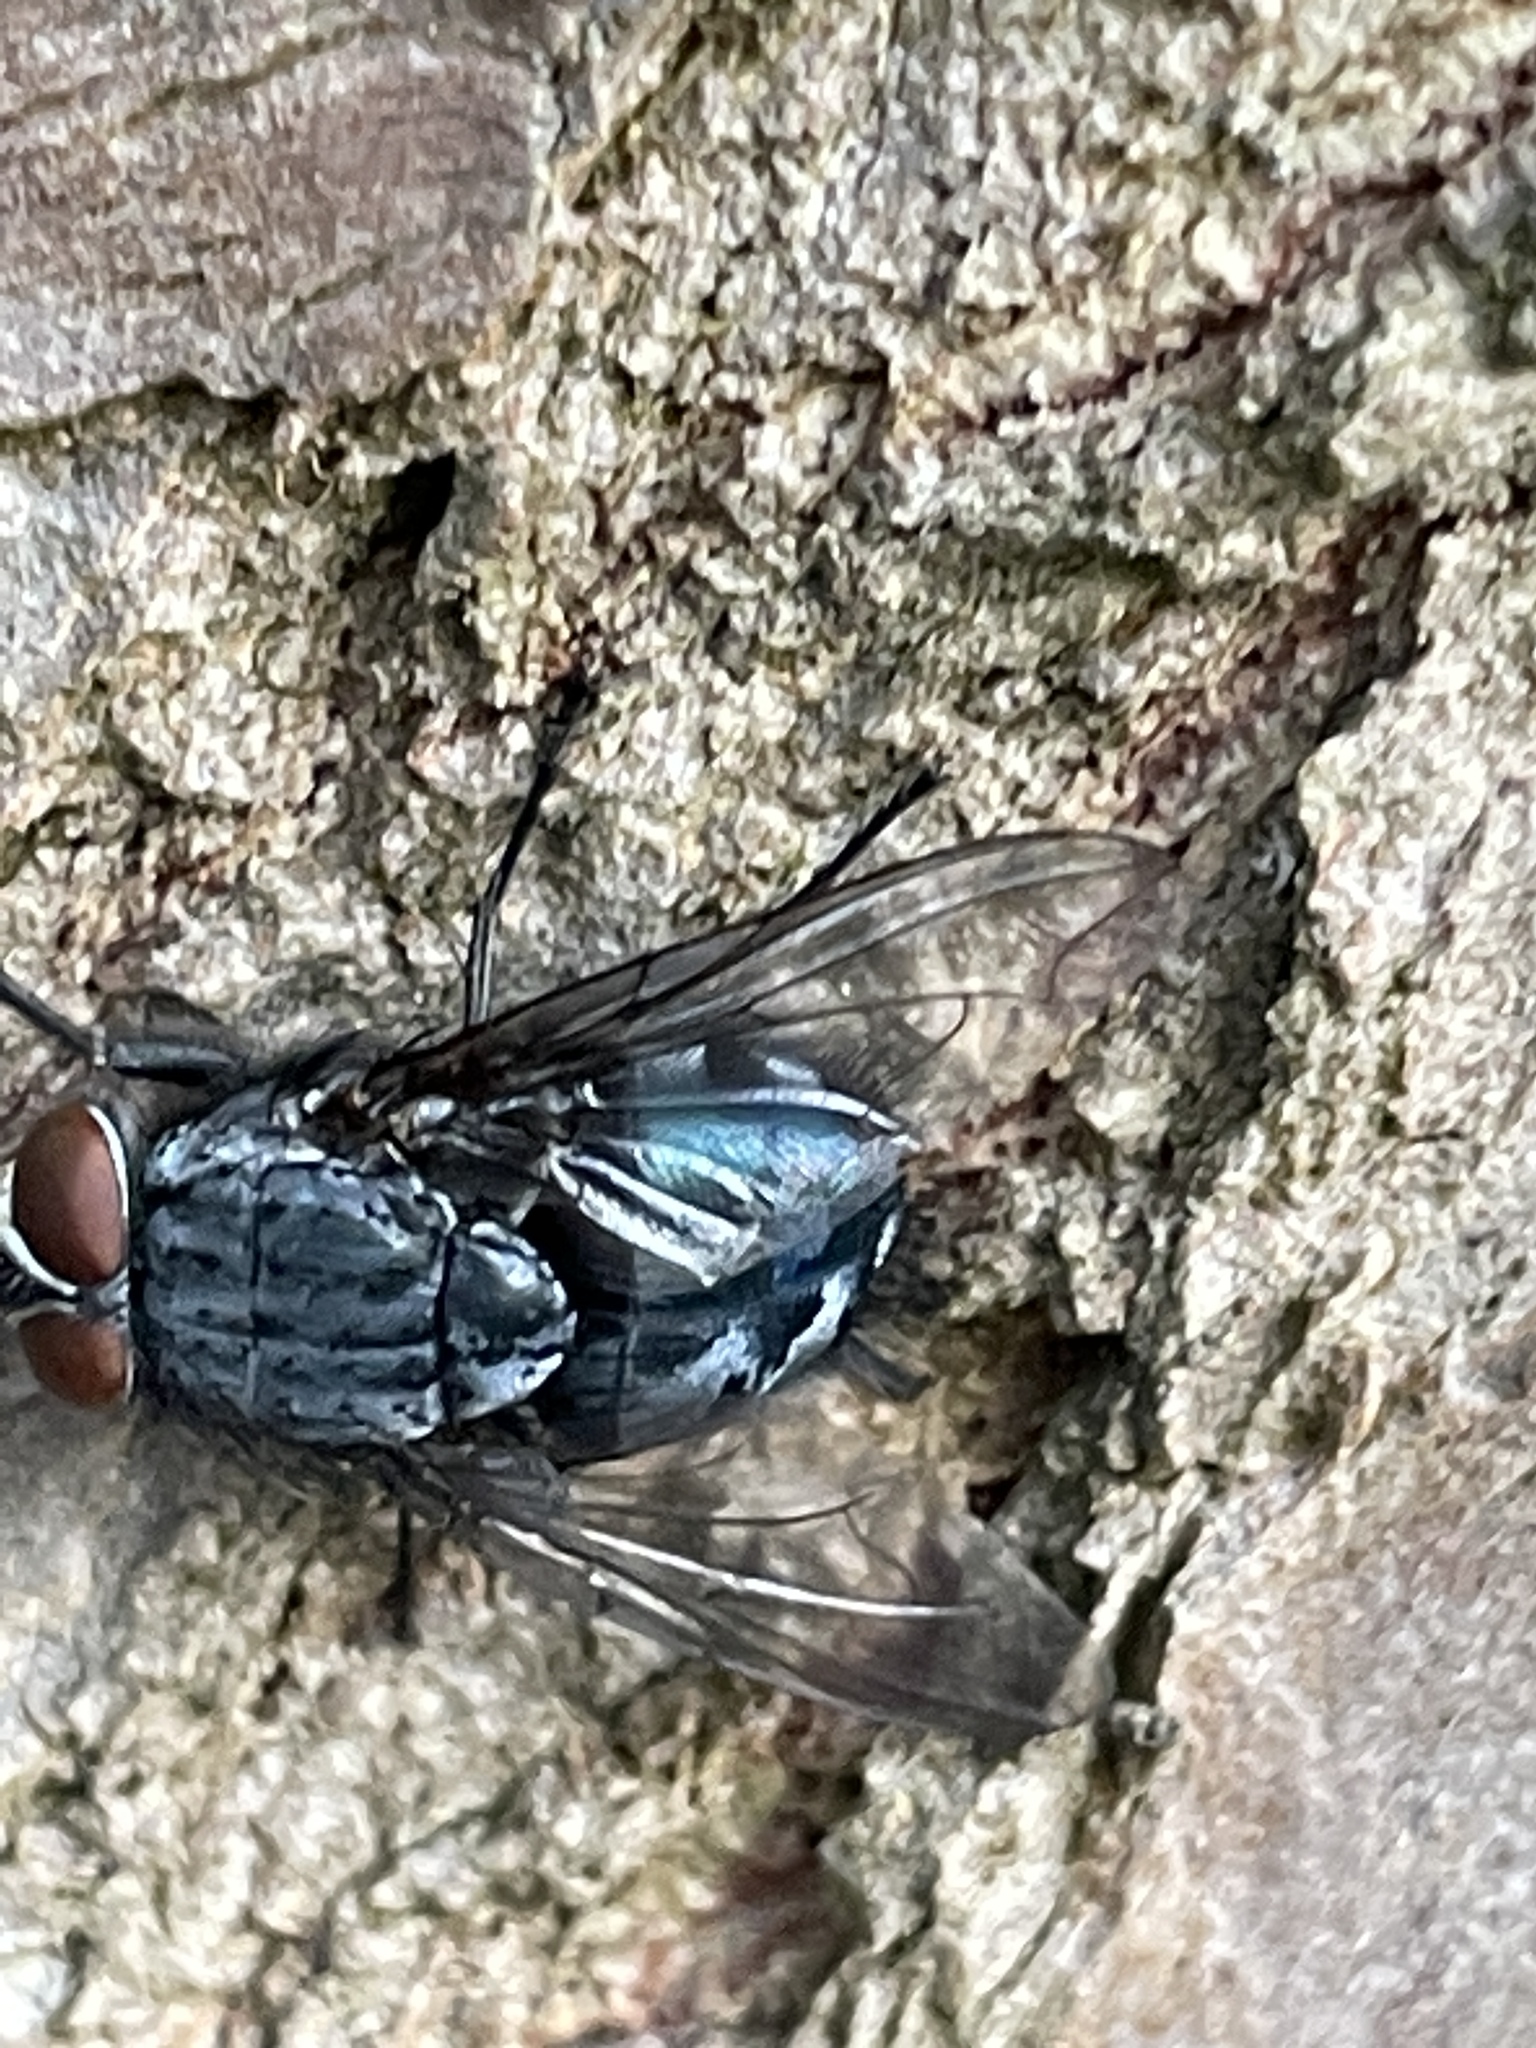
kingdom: Animalia
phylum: Arthropoda
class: Insecta
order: Diptera
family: Calliphoridae
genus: Calliphora
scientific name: Calliphora vicina
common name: Common blow flie
